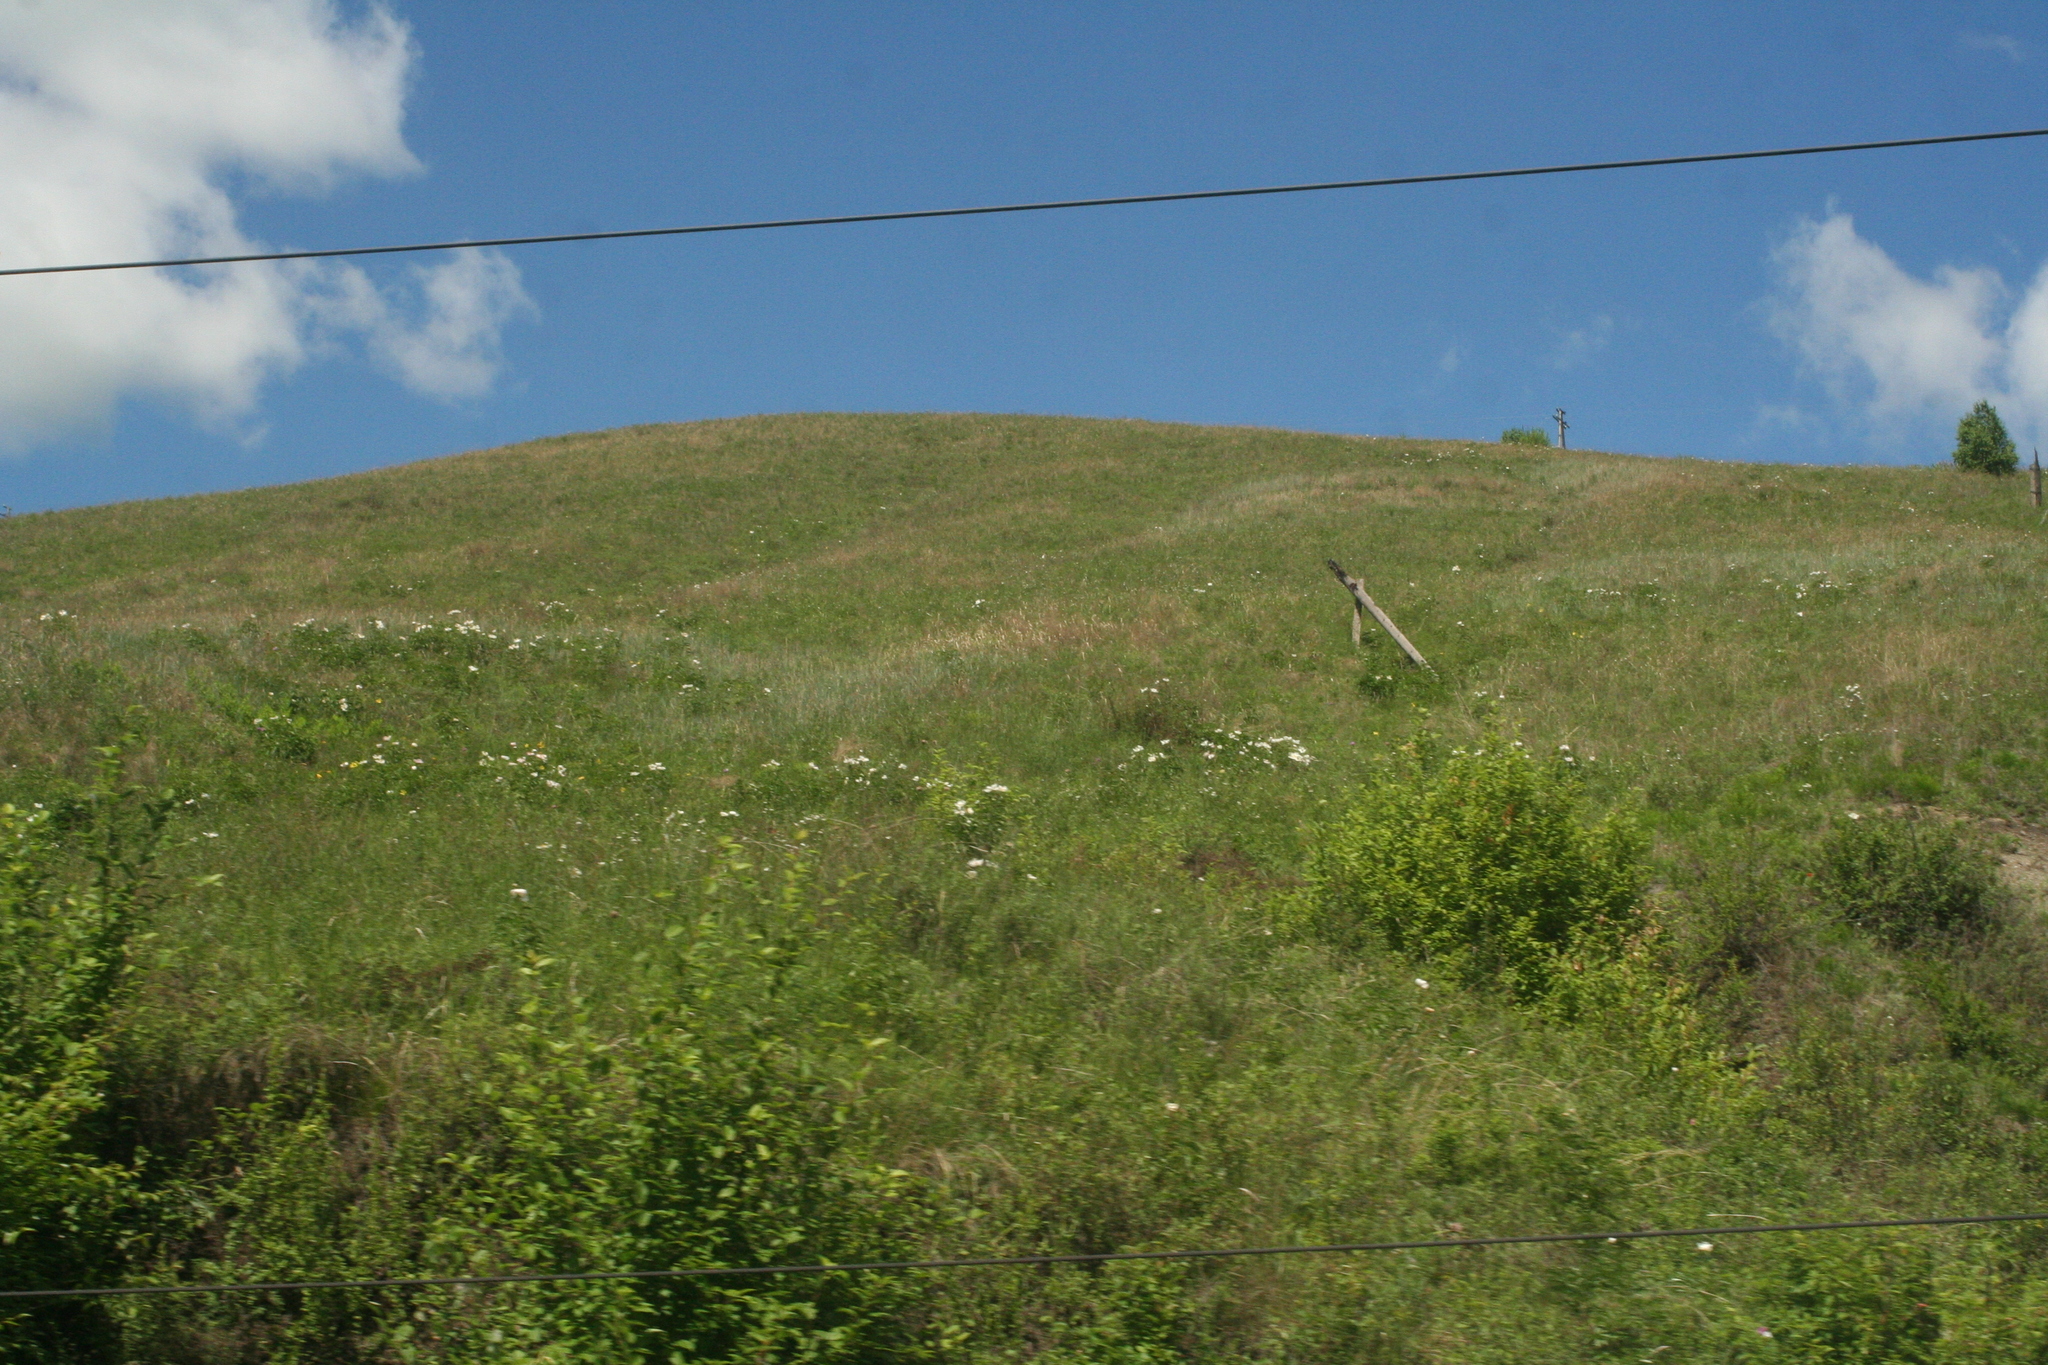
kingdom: Plantae
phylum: Tracheophyta
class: Magnoliopsida
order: Saxifragales
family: Paeoniaceae
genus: Paeonia
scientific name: Paeonia lactiflora
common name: Chinese peony
